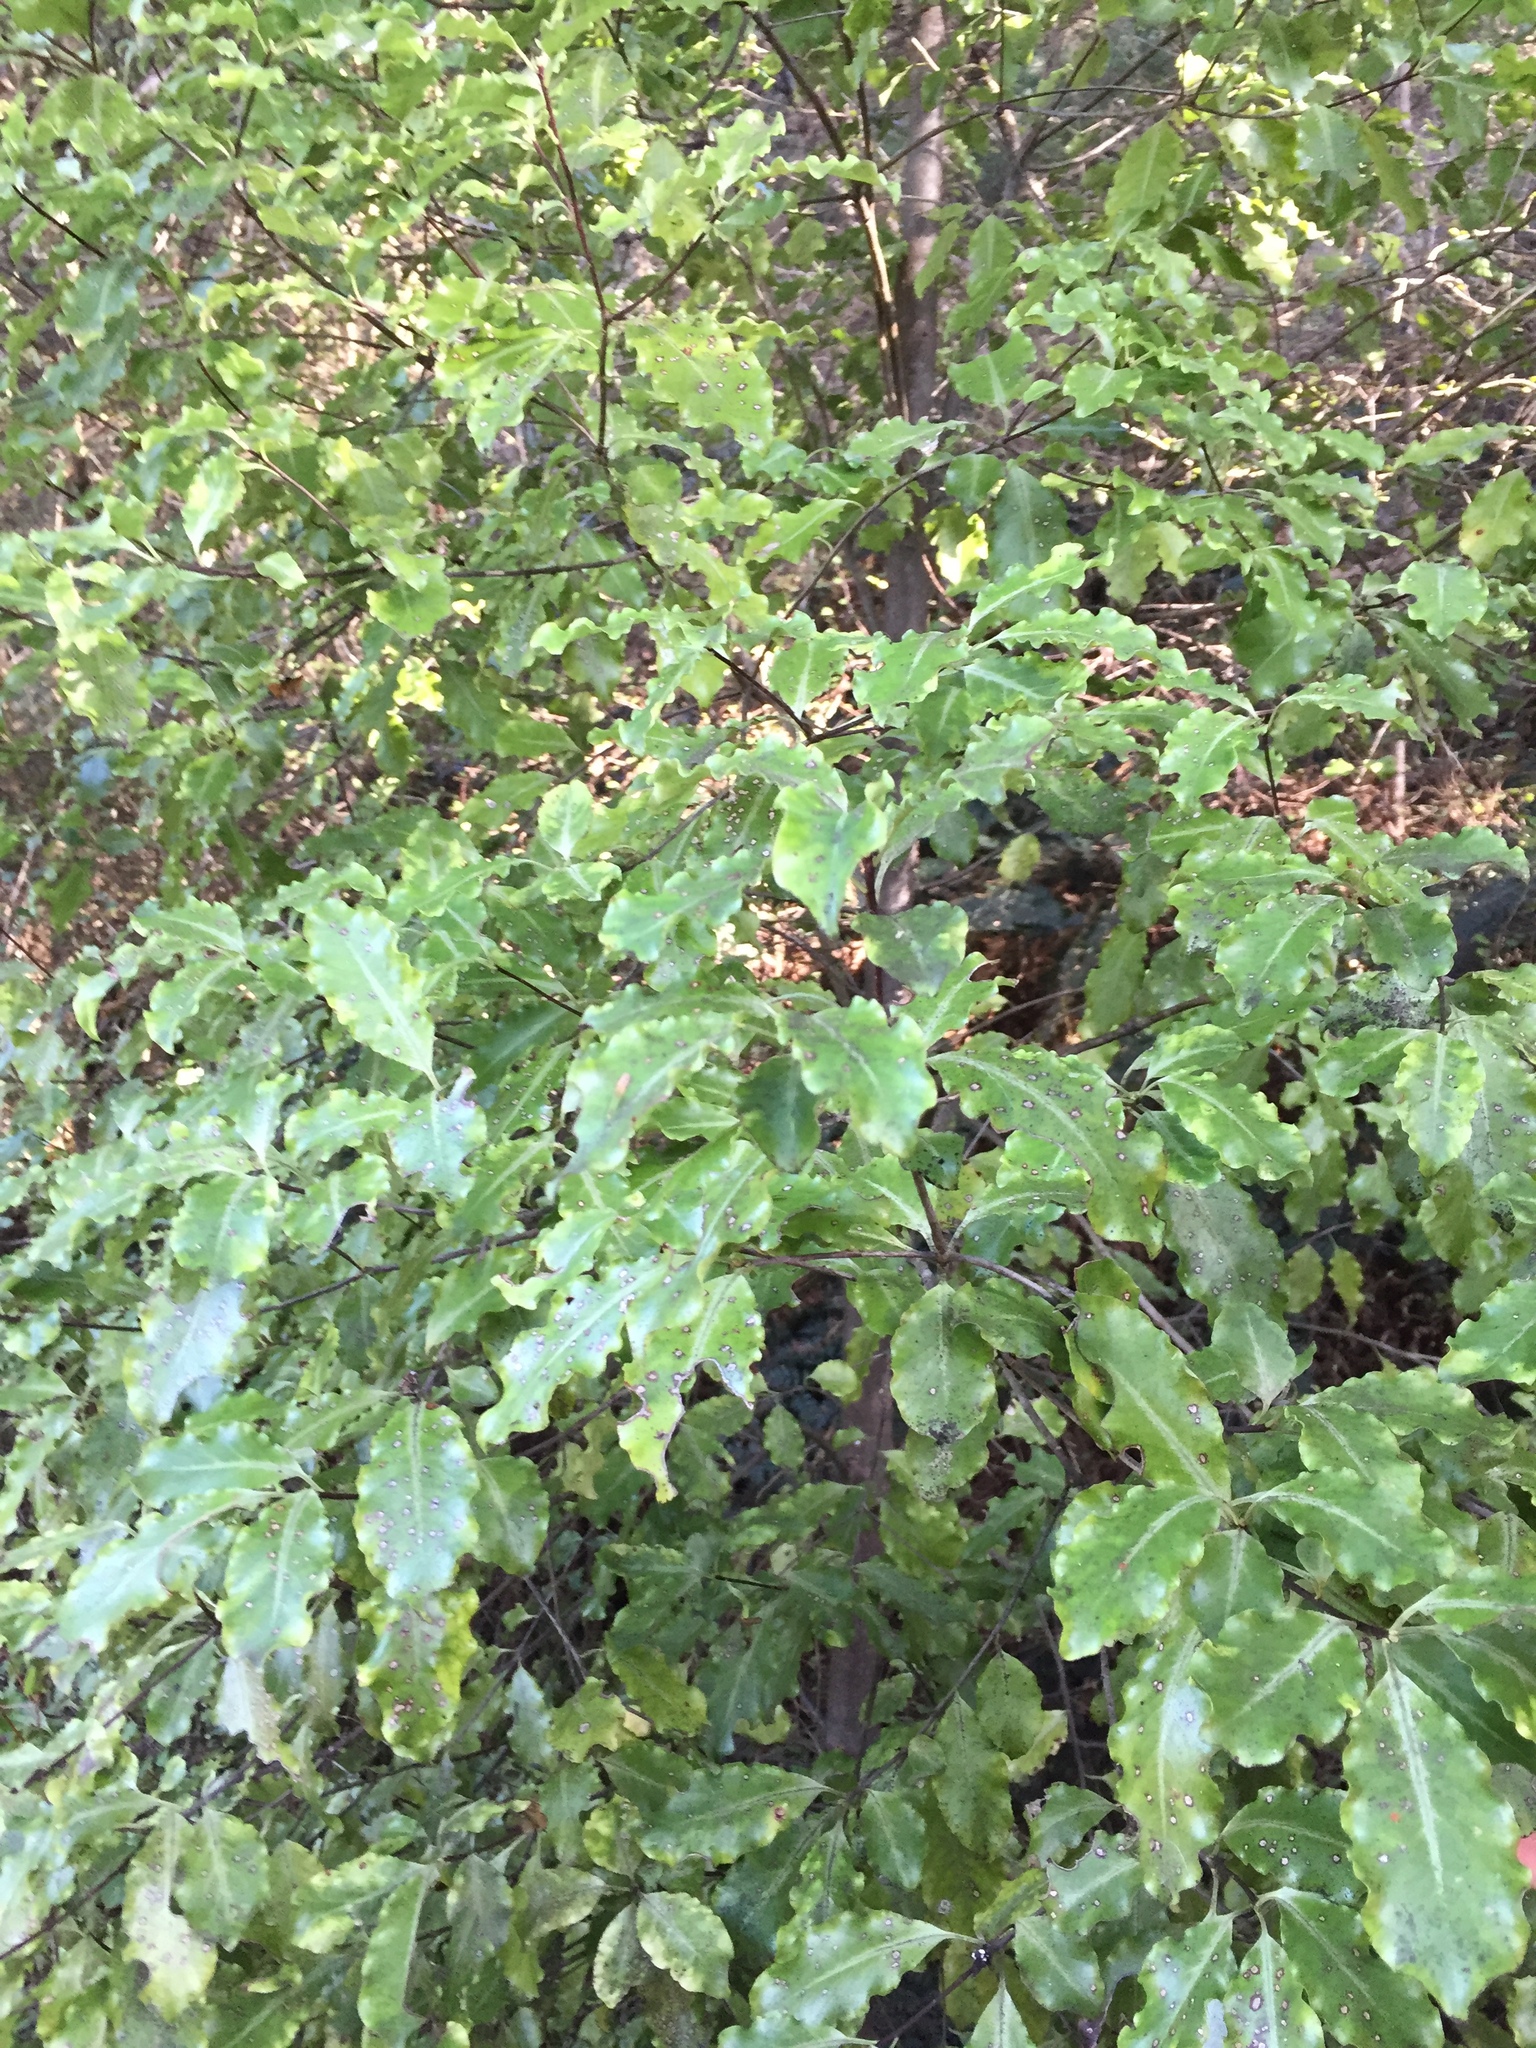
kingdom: Plantae
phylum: Tracheophyta
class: Magnoliopsida
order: Apiales
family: Pittosporaceae
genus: Pittosporum
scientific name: Pittosporum tenuifolium
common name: Kohuhu
